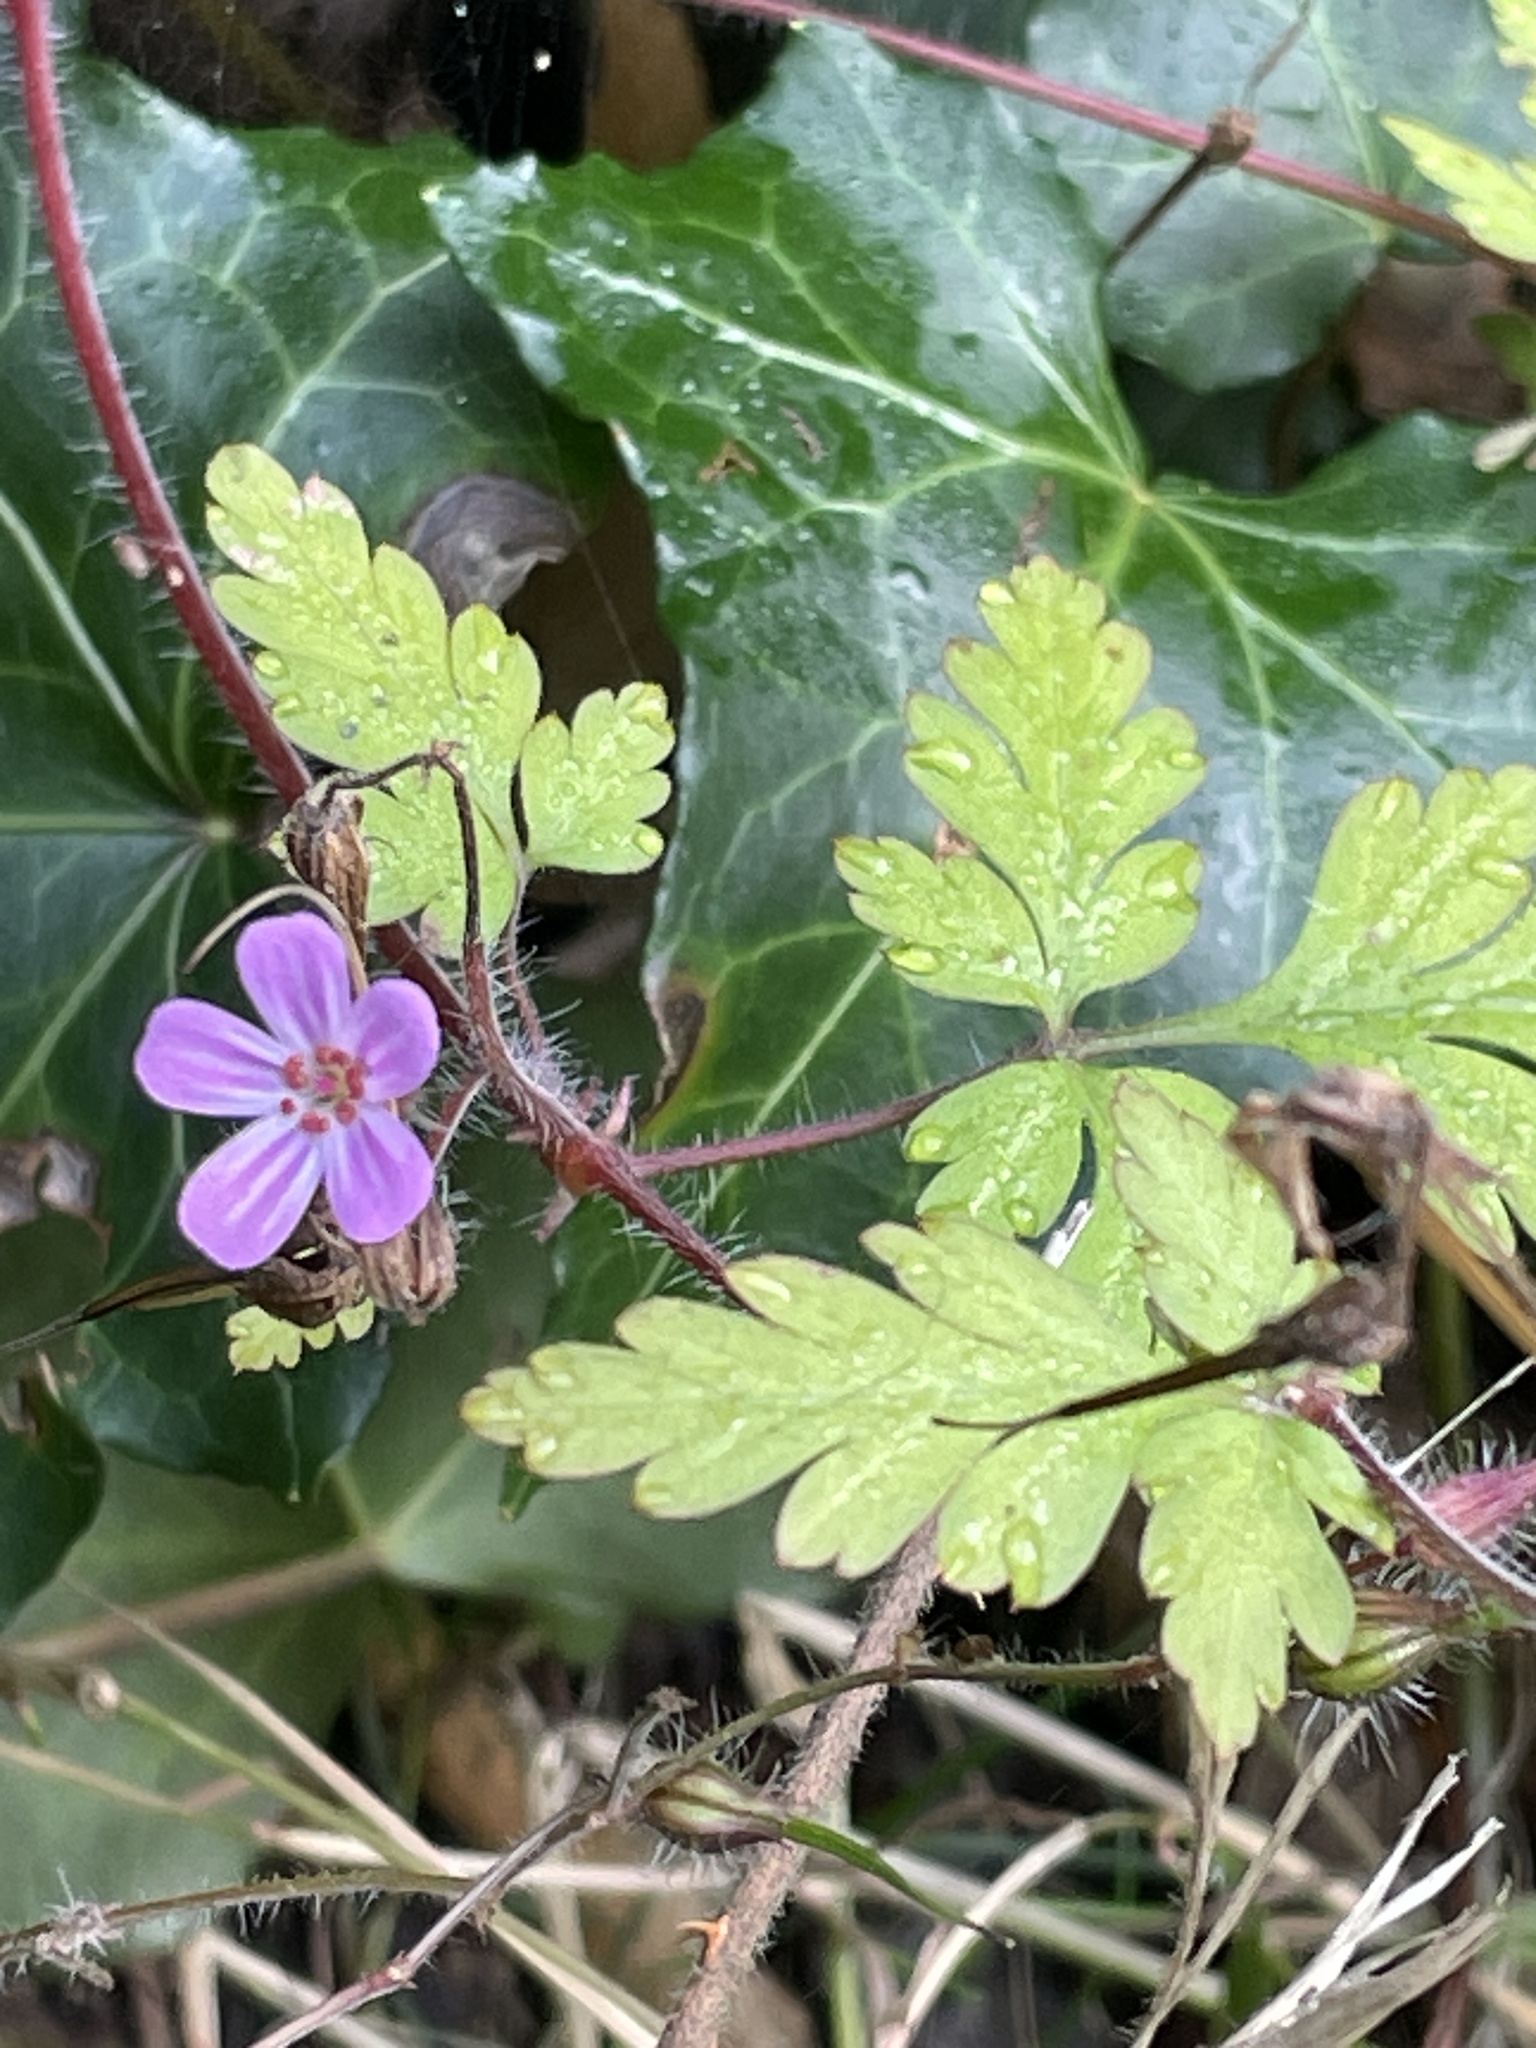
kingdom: Plantae
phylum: Tracheophyta
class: Magnoliopsida
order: Geraniales
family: Geraniaceae
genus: Geranium
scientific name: Geranium robertianum
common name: Herb-robert
